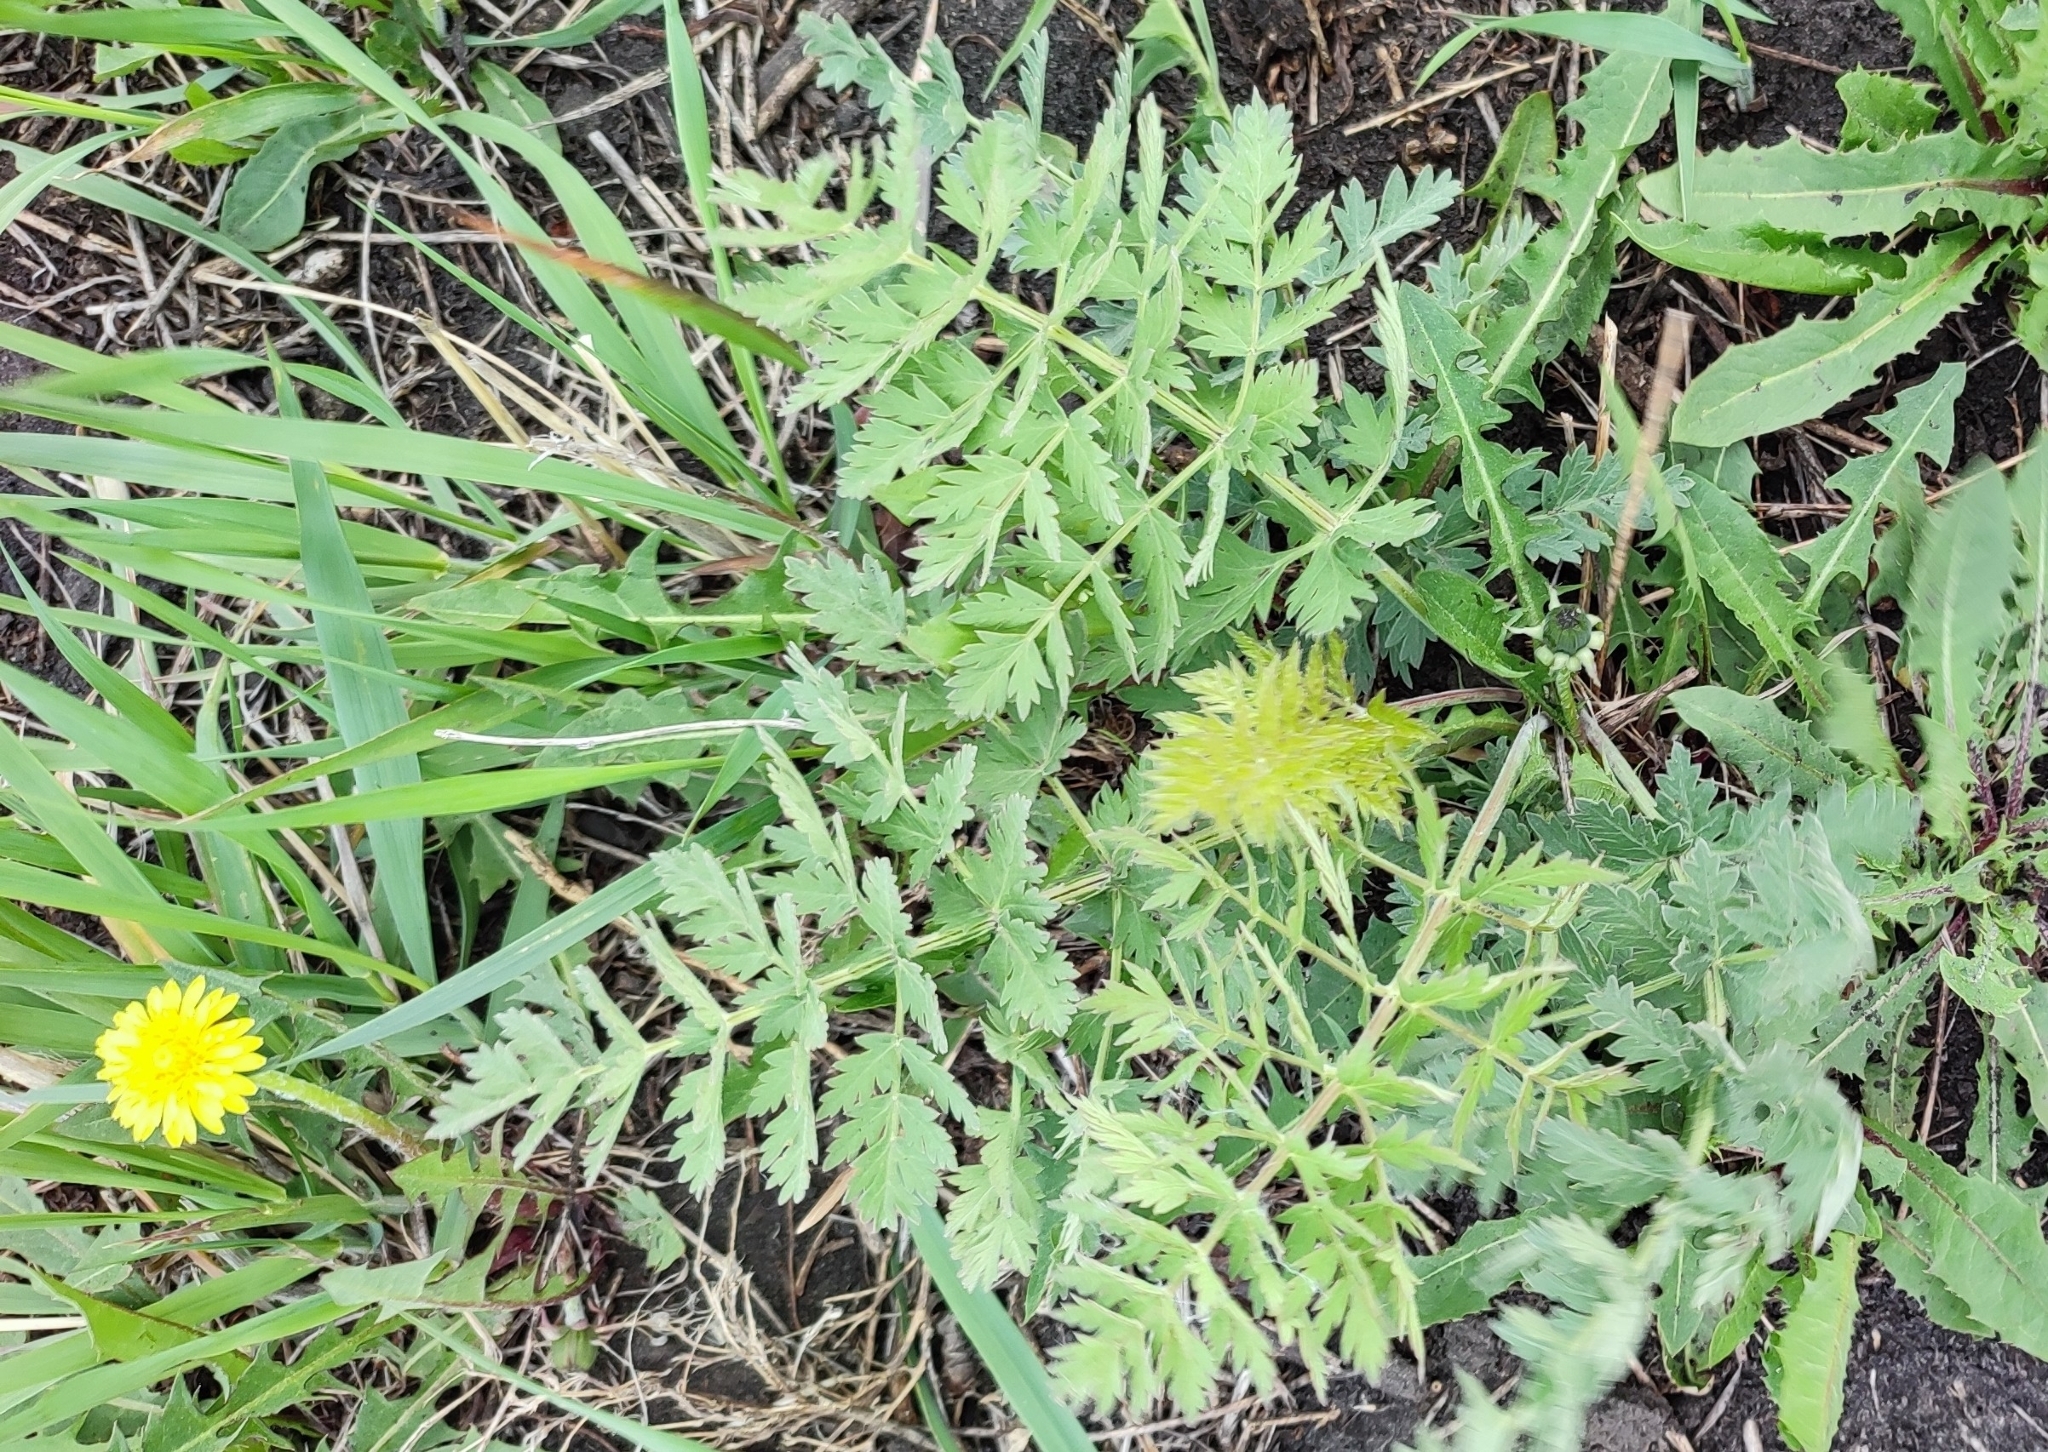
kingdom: Plantae
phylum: Tracheophyta
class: Magnoliopsida
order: Apiales
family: Apiaceae
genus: Seseli
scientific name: Seseli libanotis
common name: Mooncarrot
